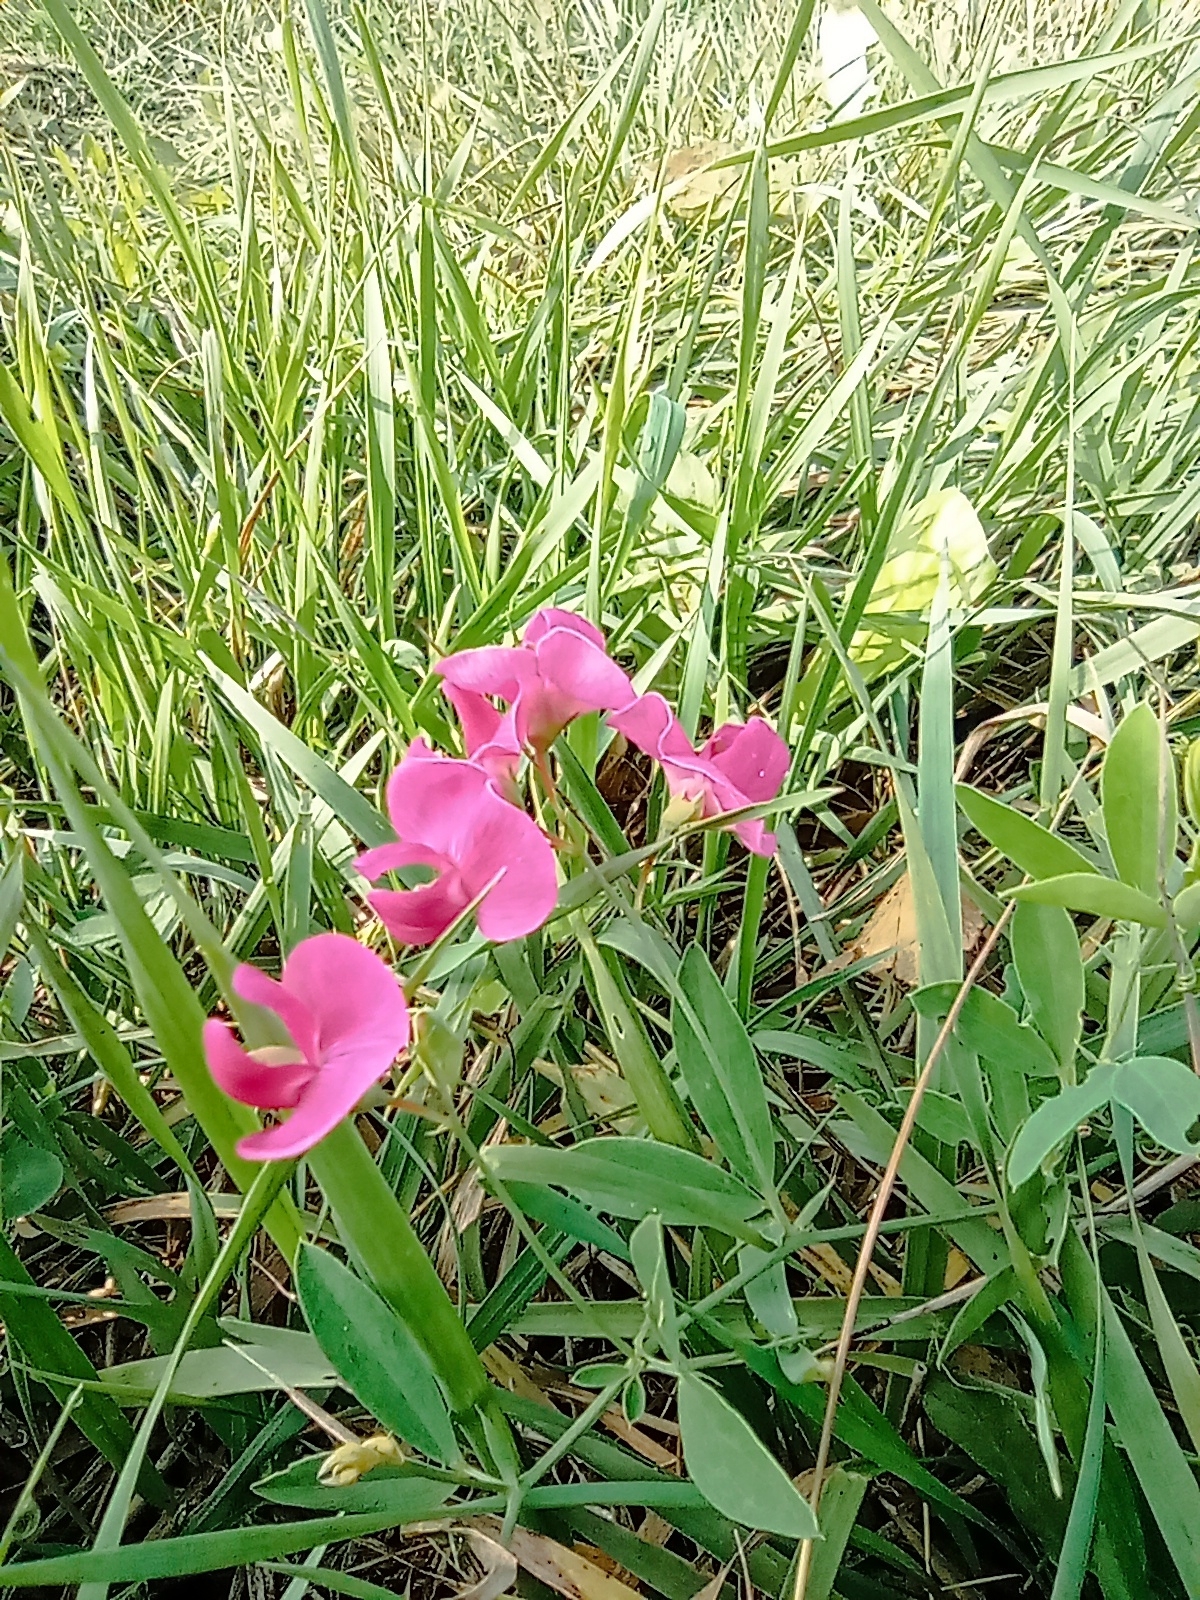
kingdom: Plantae
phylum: Tracheophyta
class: Magnoliopsida
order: Fabales
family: Fabaceae
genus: Lathyrus
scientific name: Lathyrus tuberosus
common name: Tuberous pea
